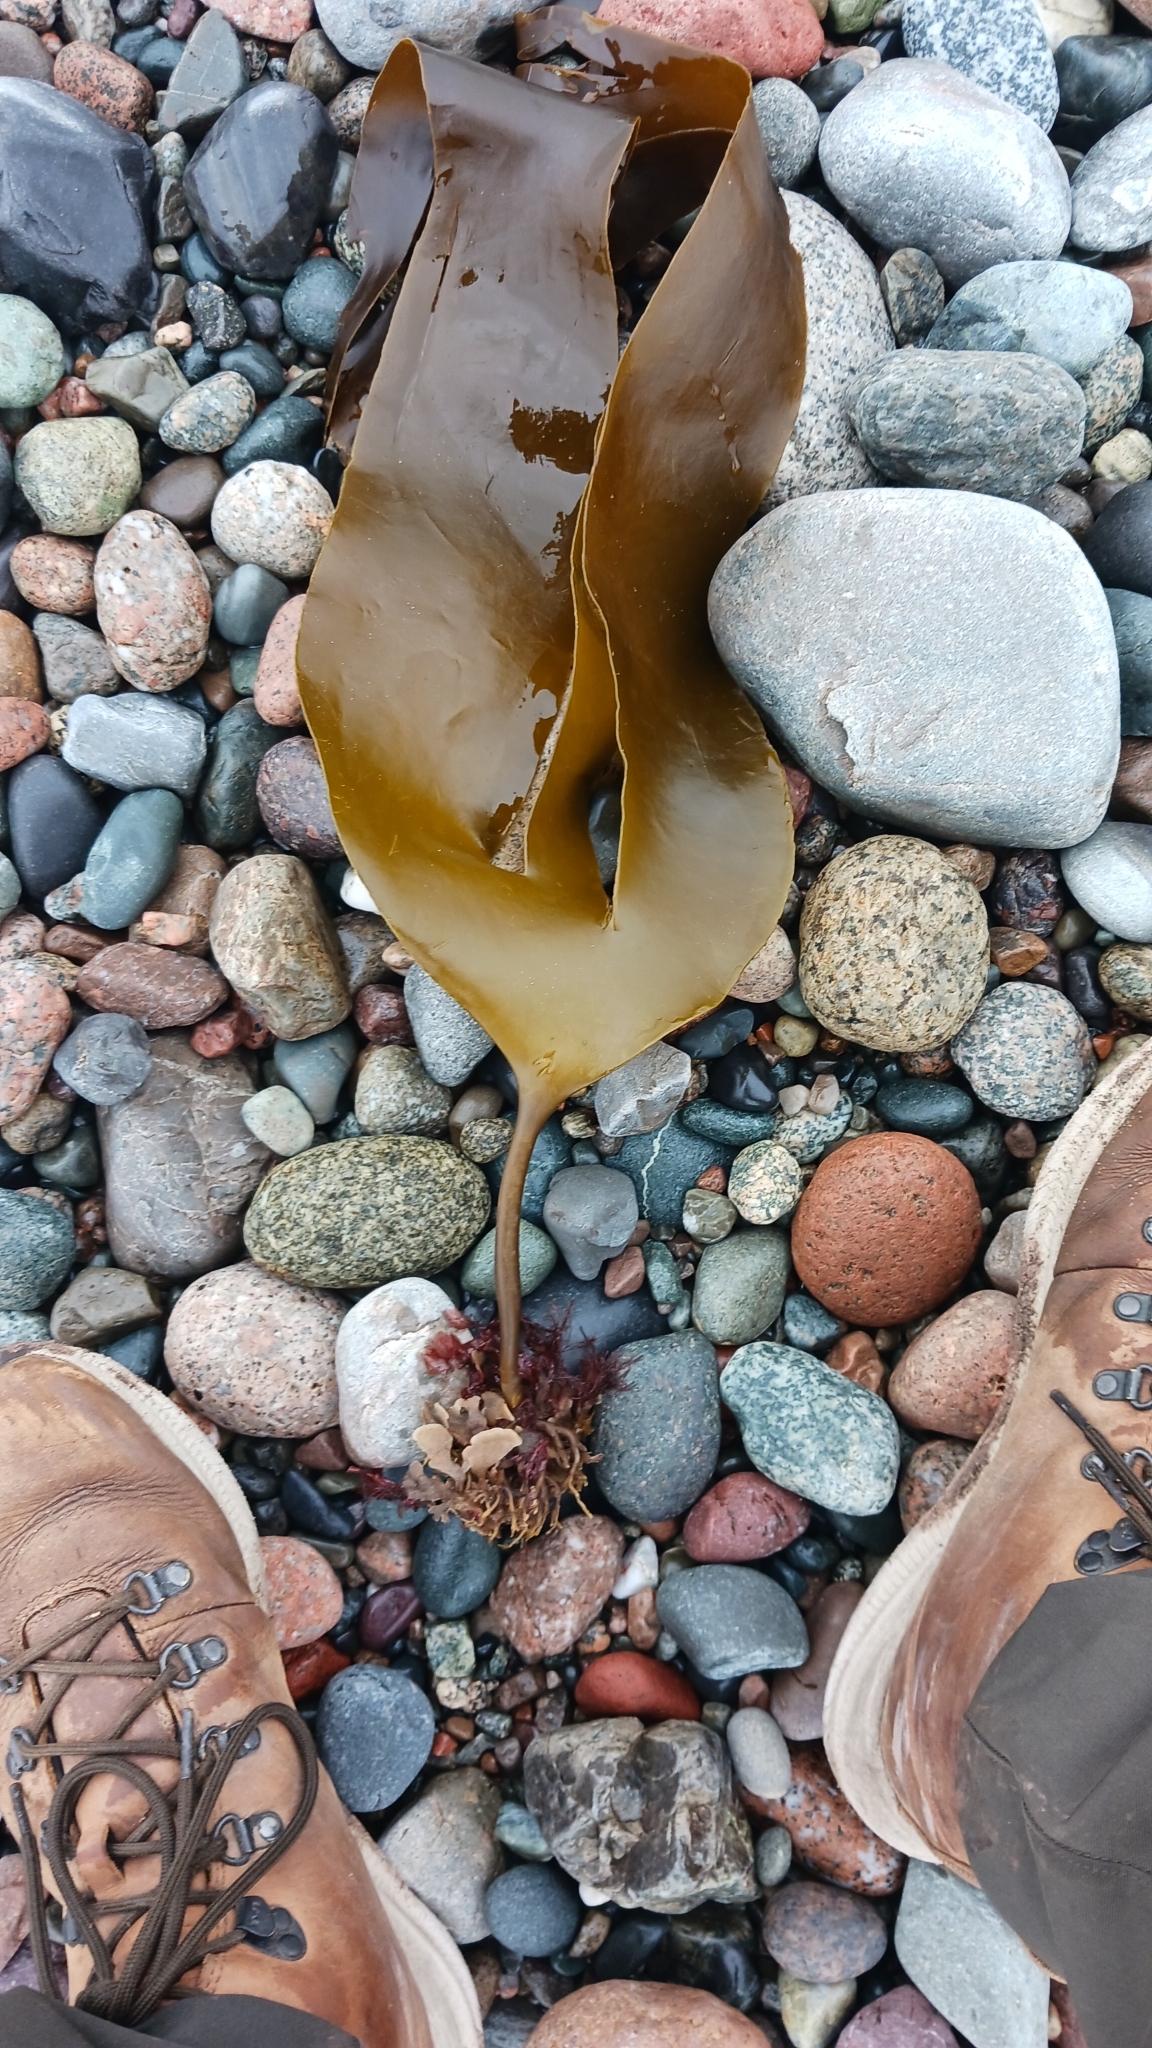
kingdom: Chromista
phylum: Ochrophyta
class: Phaeophyceae
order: Laminariales
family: Laminariaceae
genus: Laminaria
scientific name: Laminaria digitata
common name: Oarweed
